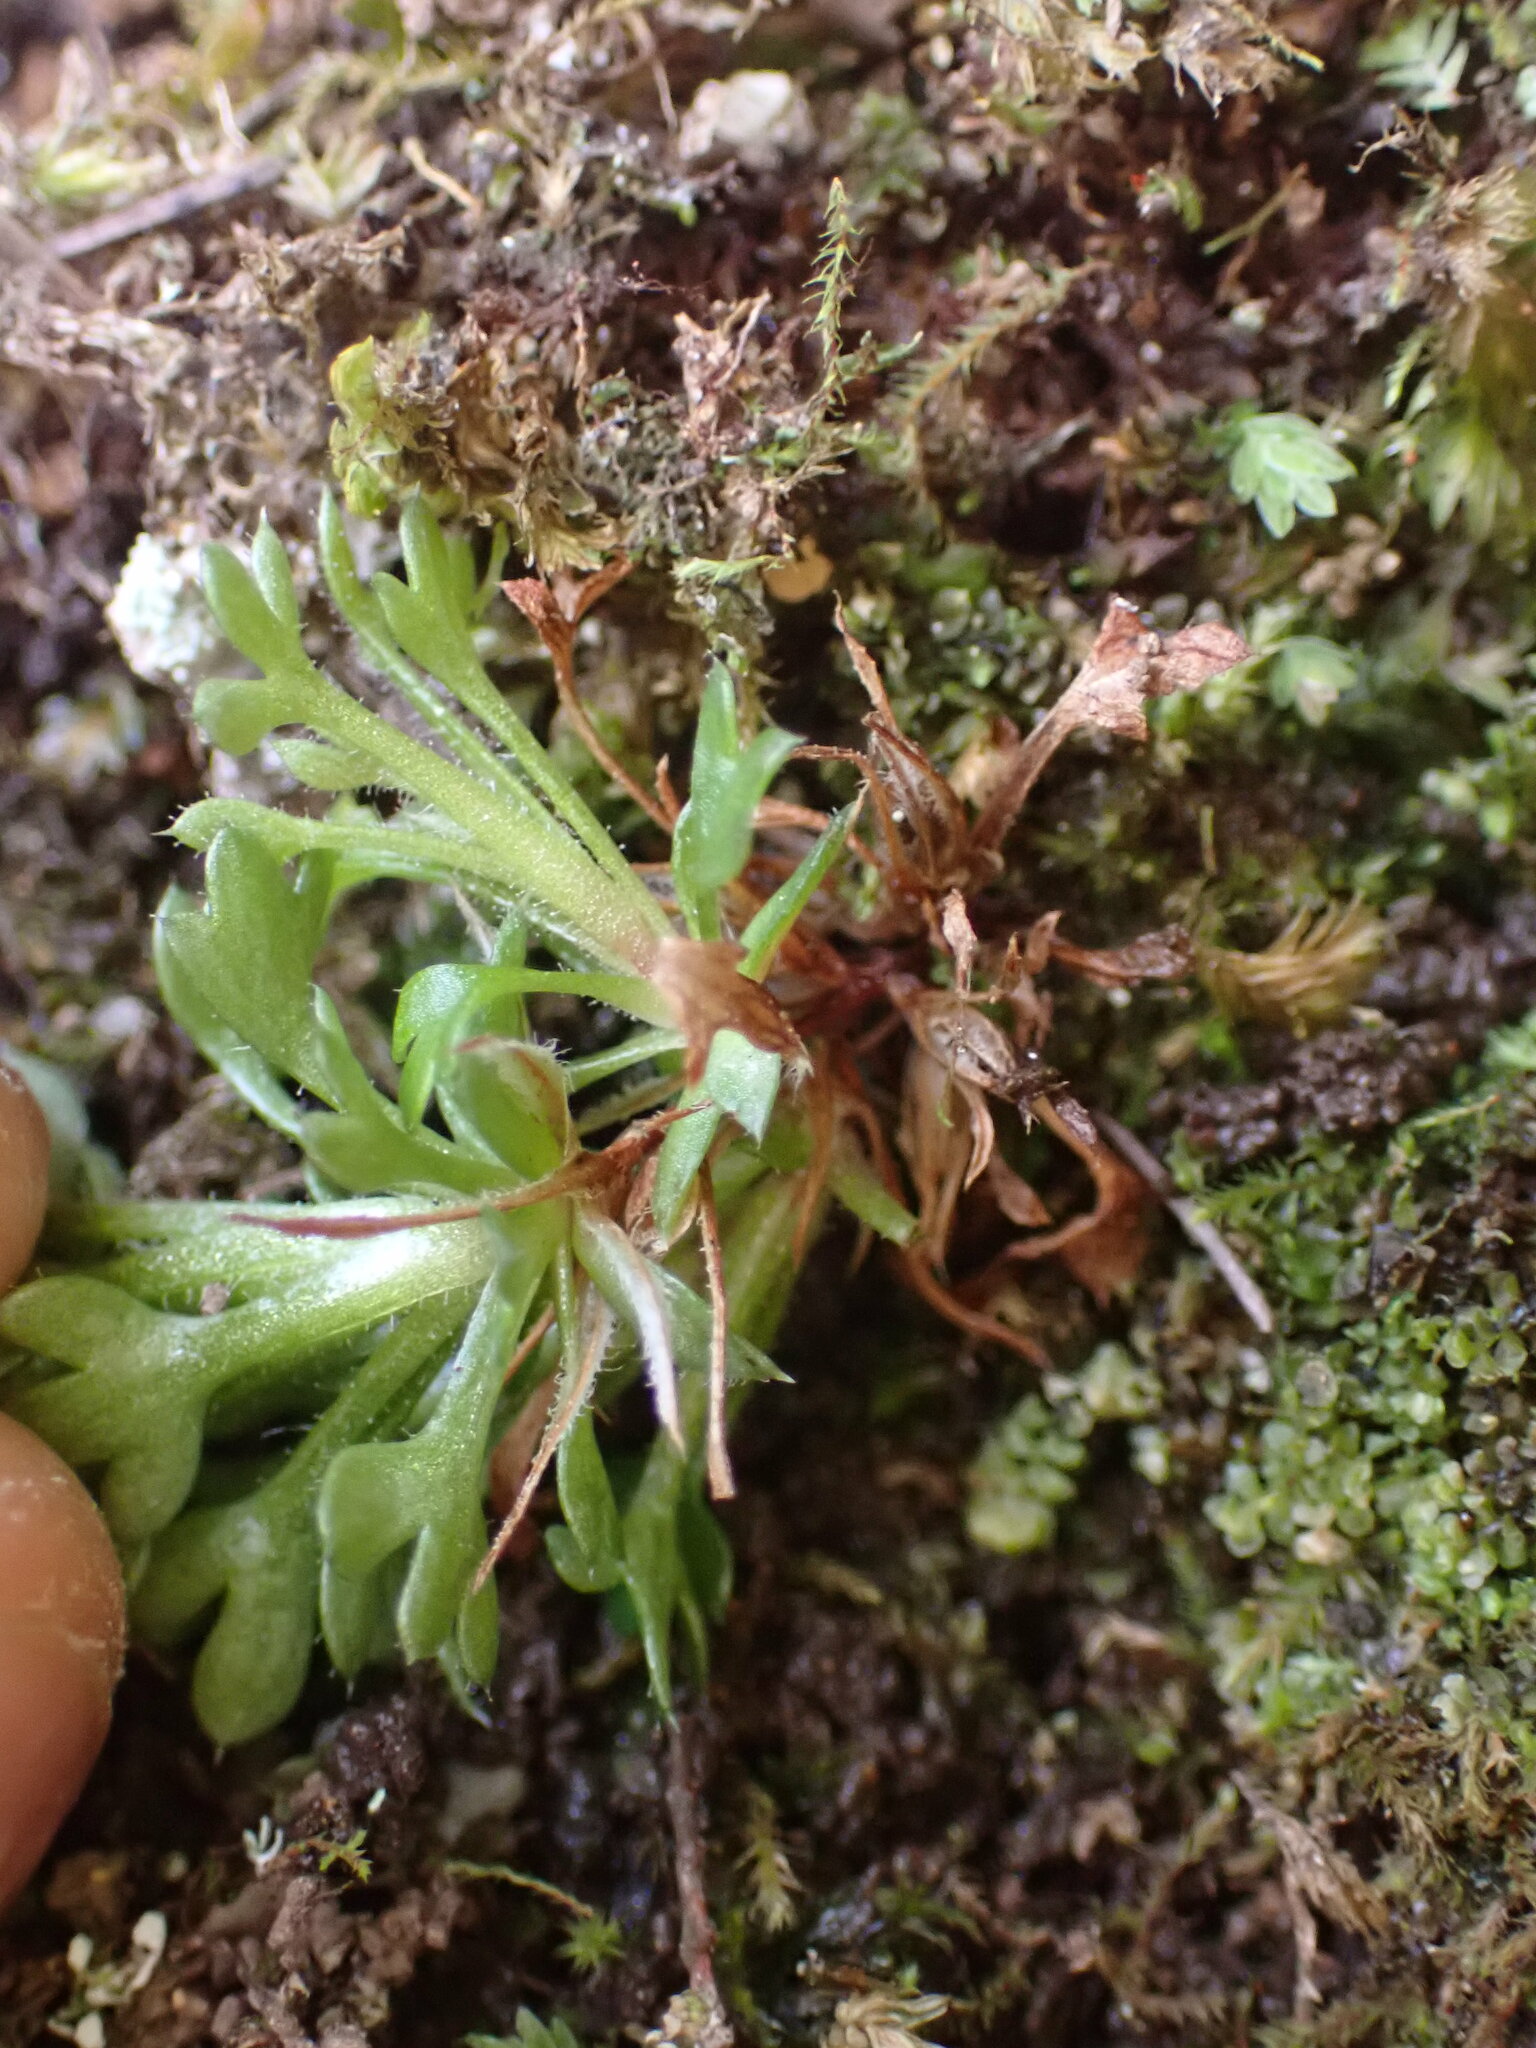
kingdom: Plantae
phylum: Tracheophyta
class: Magnoliopsida
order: Saxifragales
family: Saxifragaceae
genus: Saxifraga
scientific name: Saxifraga fragosoi
